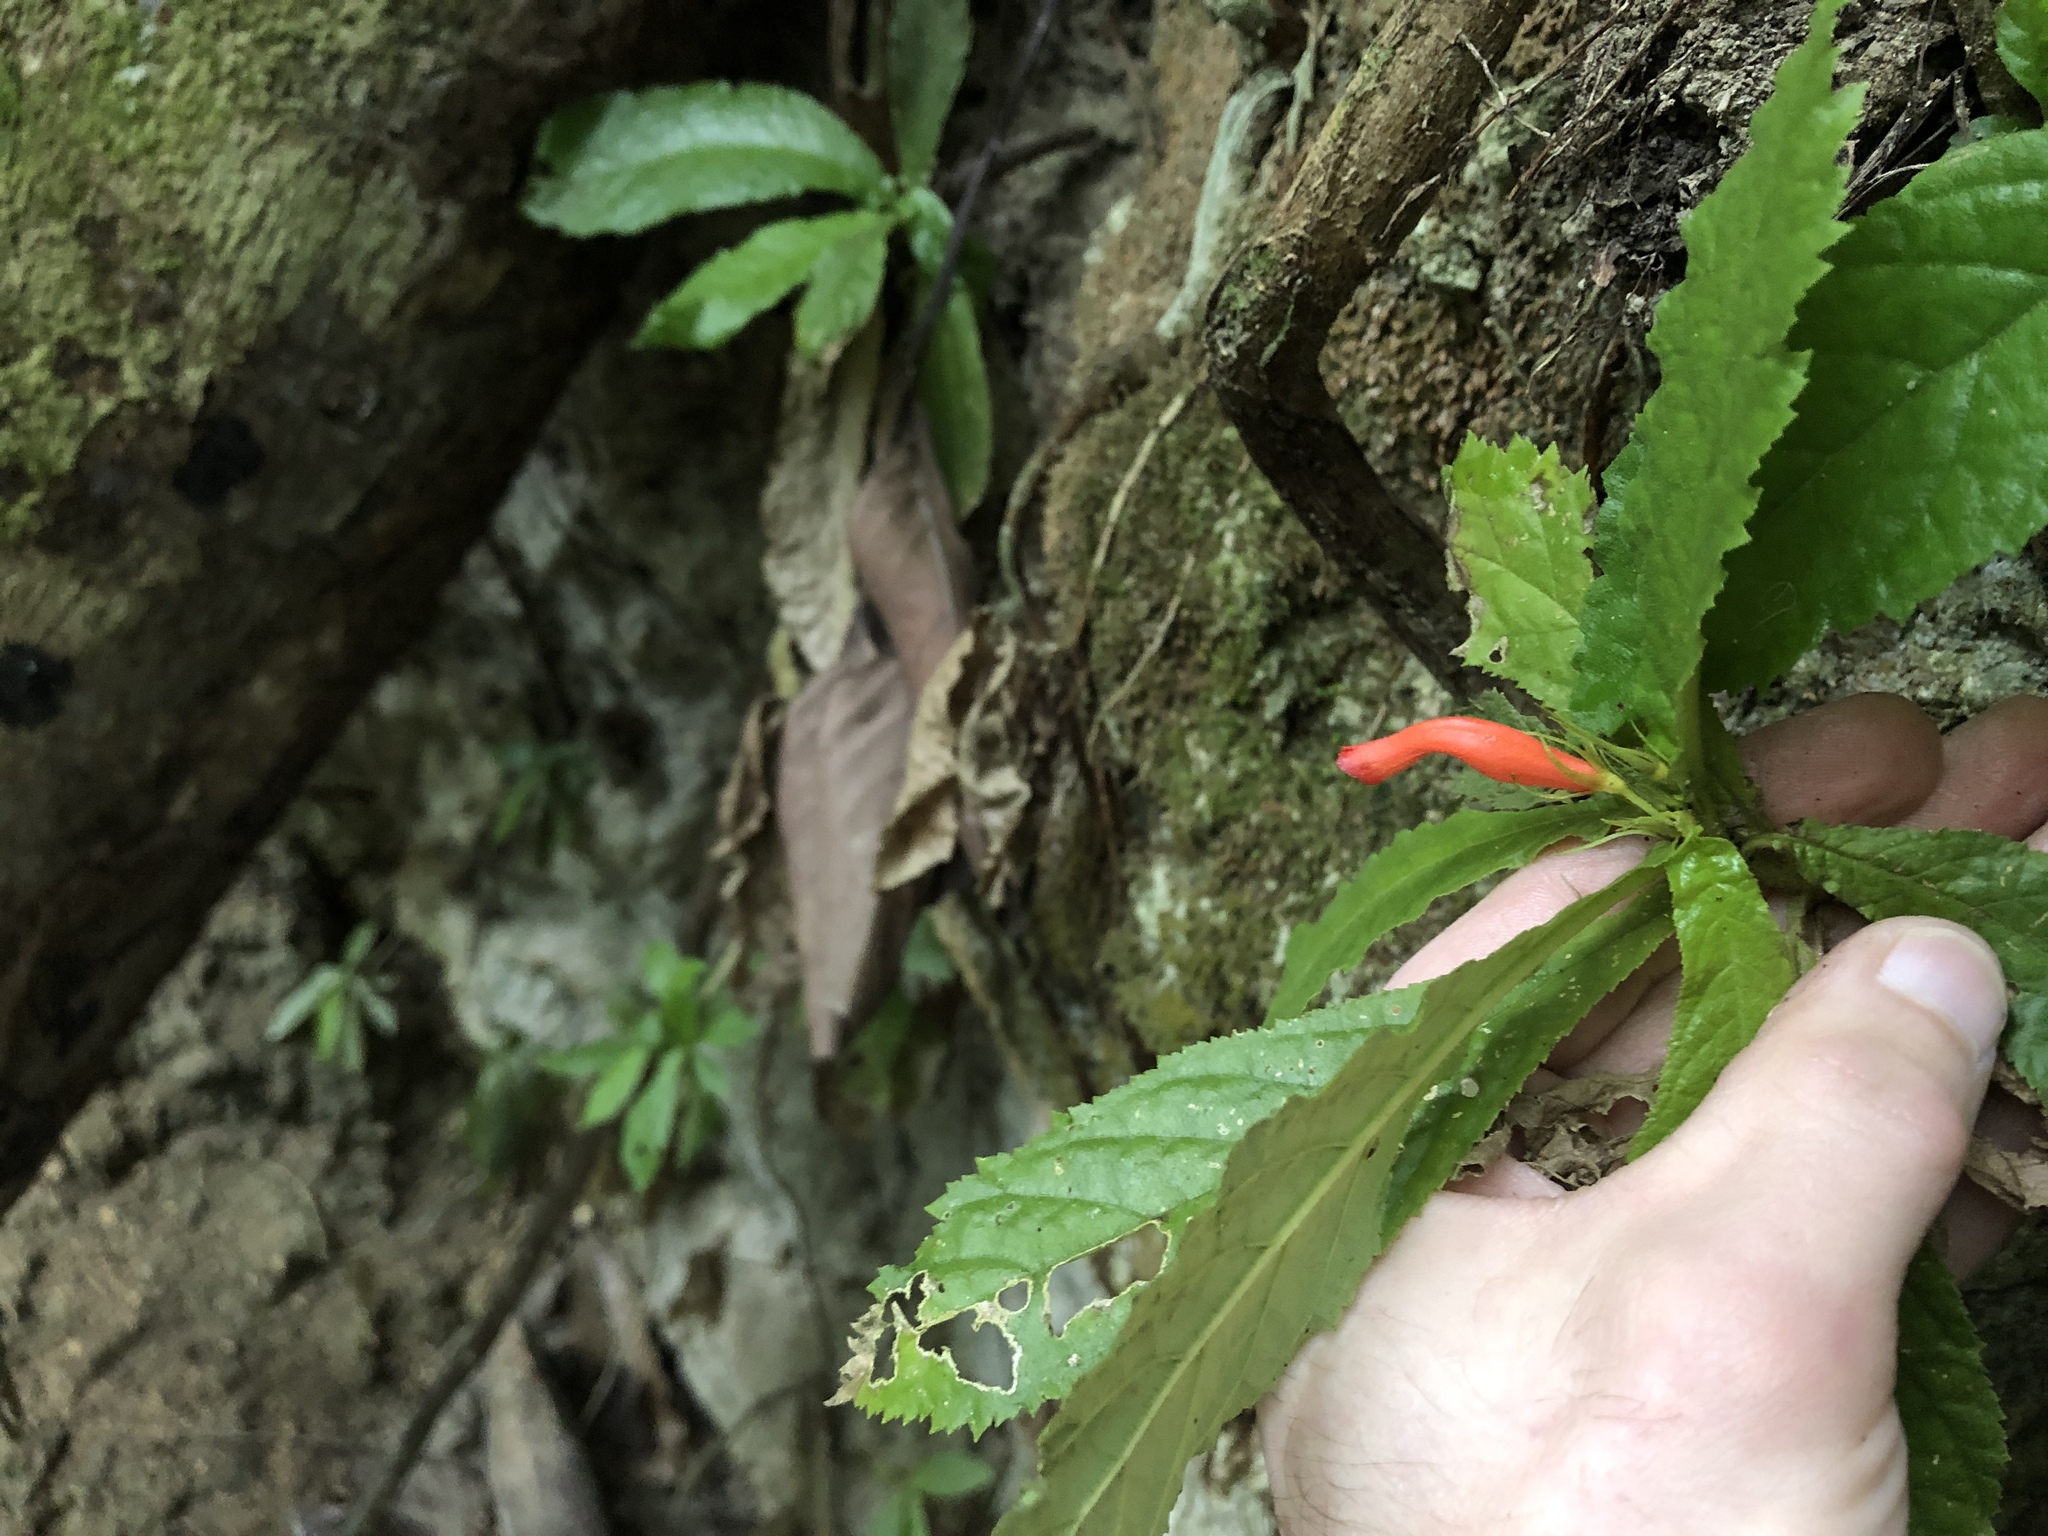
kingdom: Plantae
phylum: Tracheophyta
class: Magnoliopsida
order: Lamiales
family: Gesneriaceae
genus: Gesneria
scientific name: Gesneria acaulis
